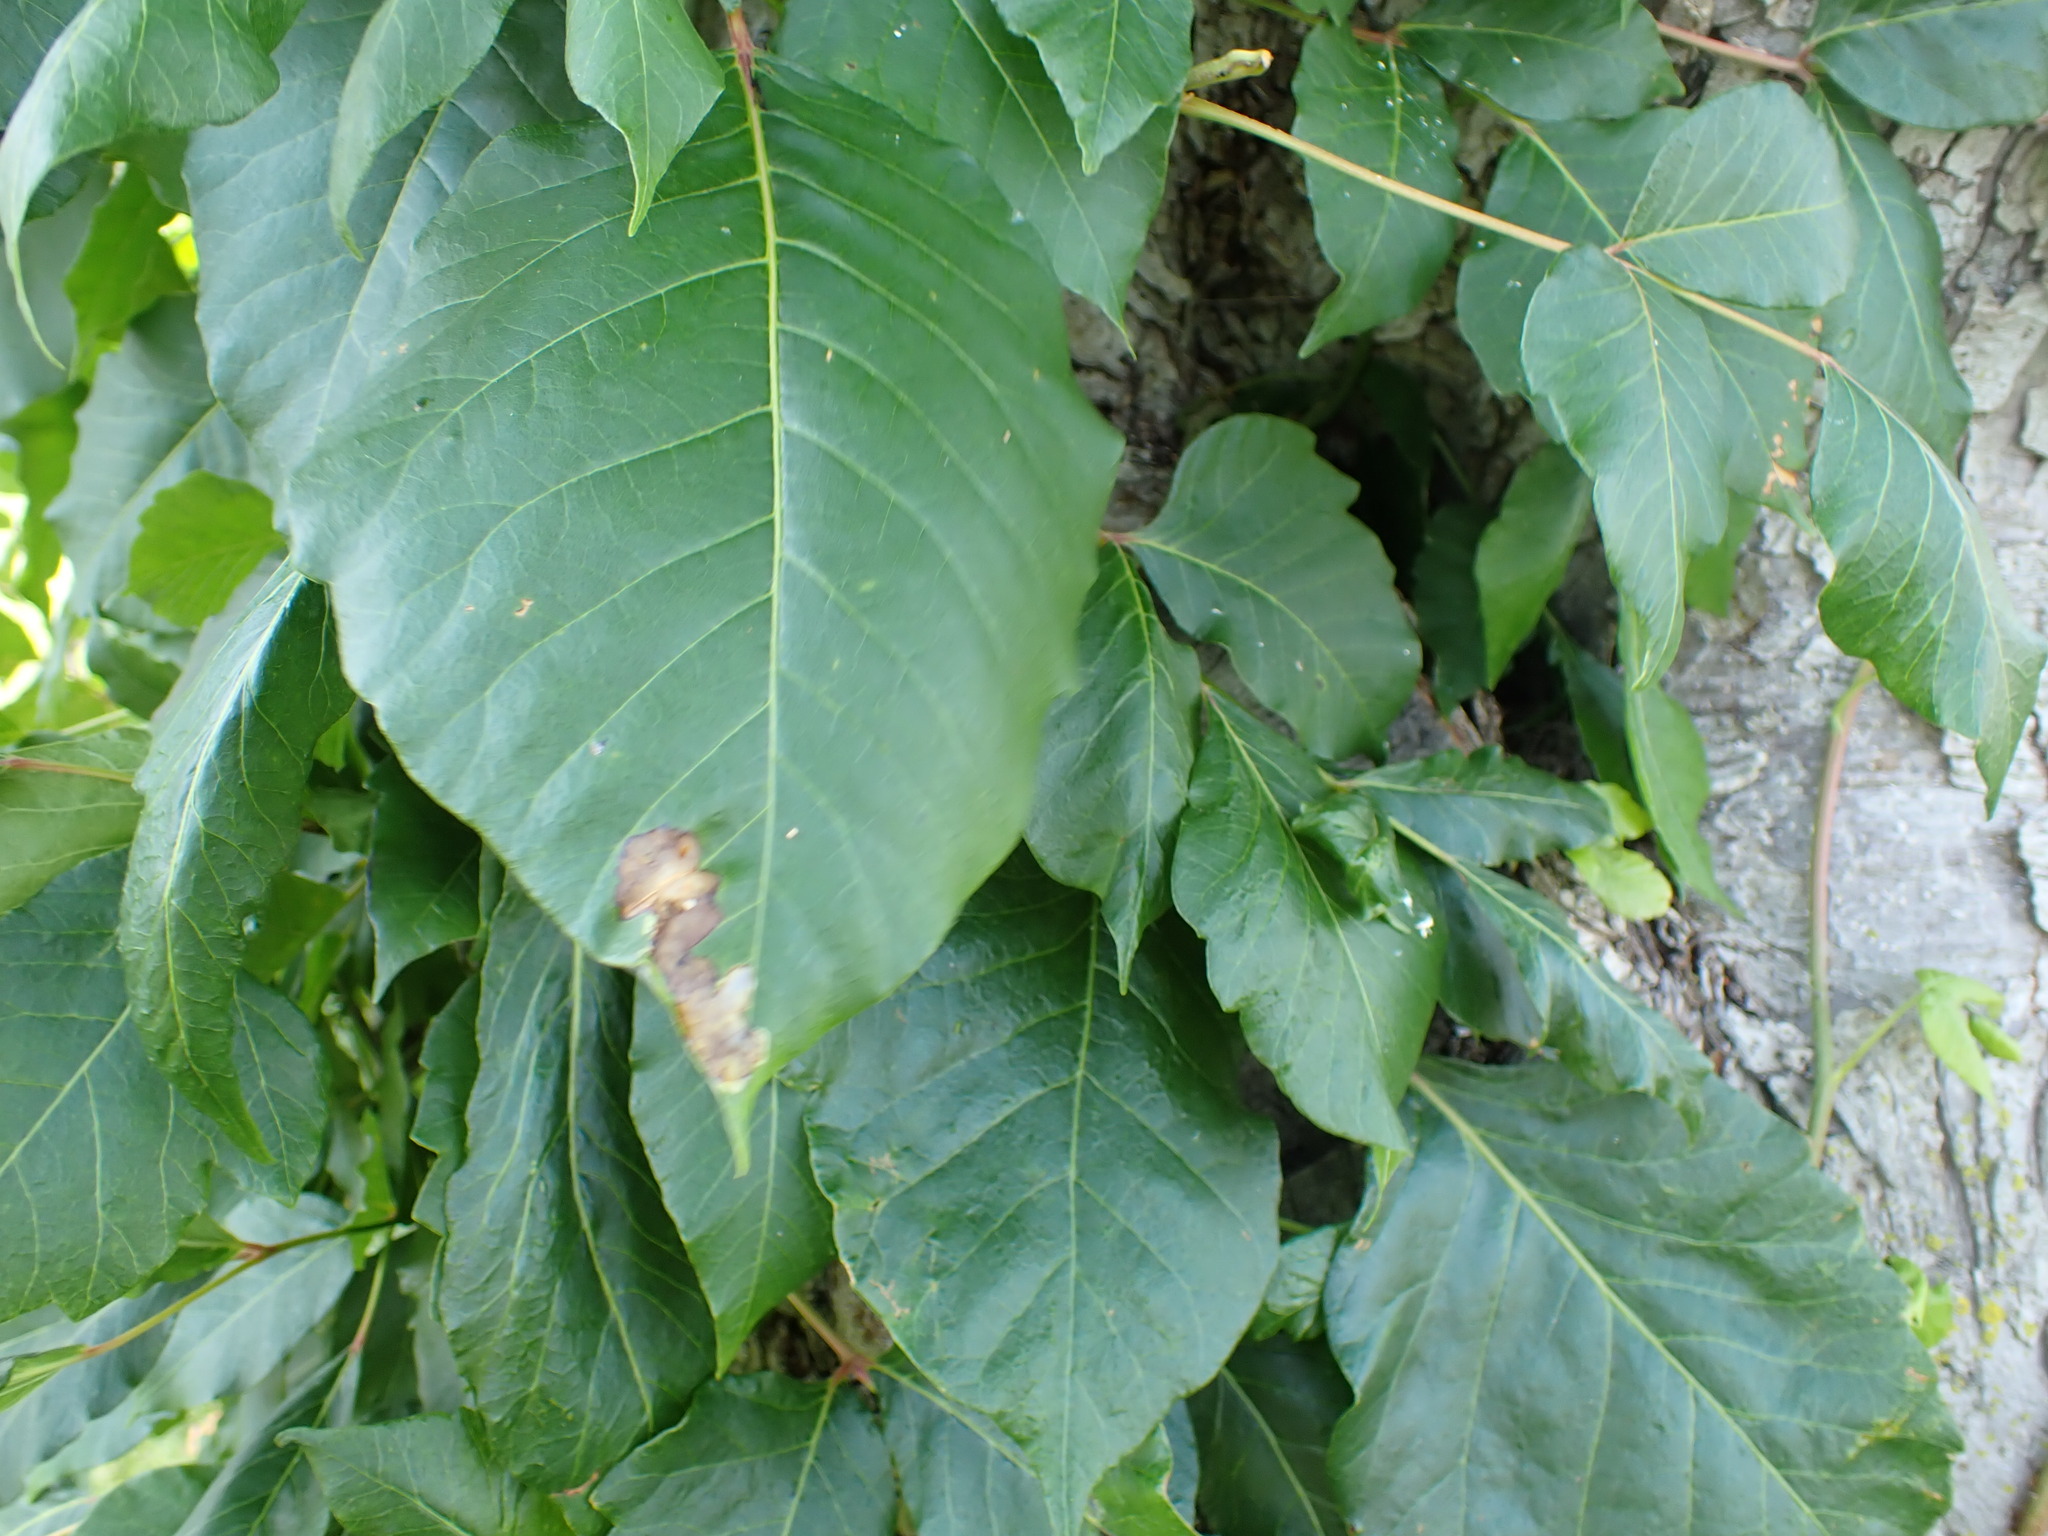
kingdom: Animalia
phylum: Arthropoda
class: Insecta
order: Lepidoptera
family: Gracillariidae
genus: Cameraria
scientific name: Cameraria guttifinitella
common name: Poison ivy leaf-miner moth
